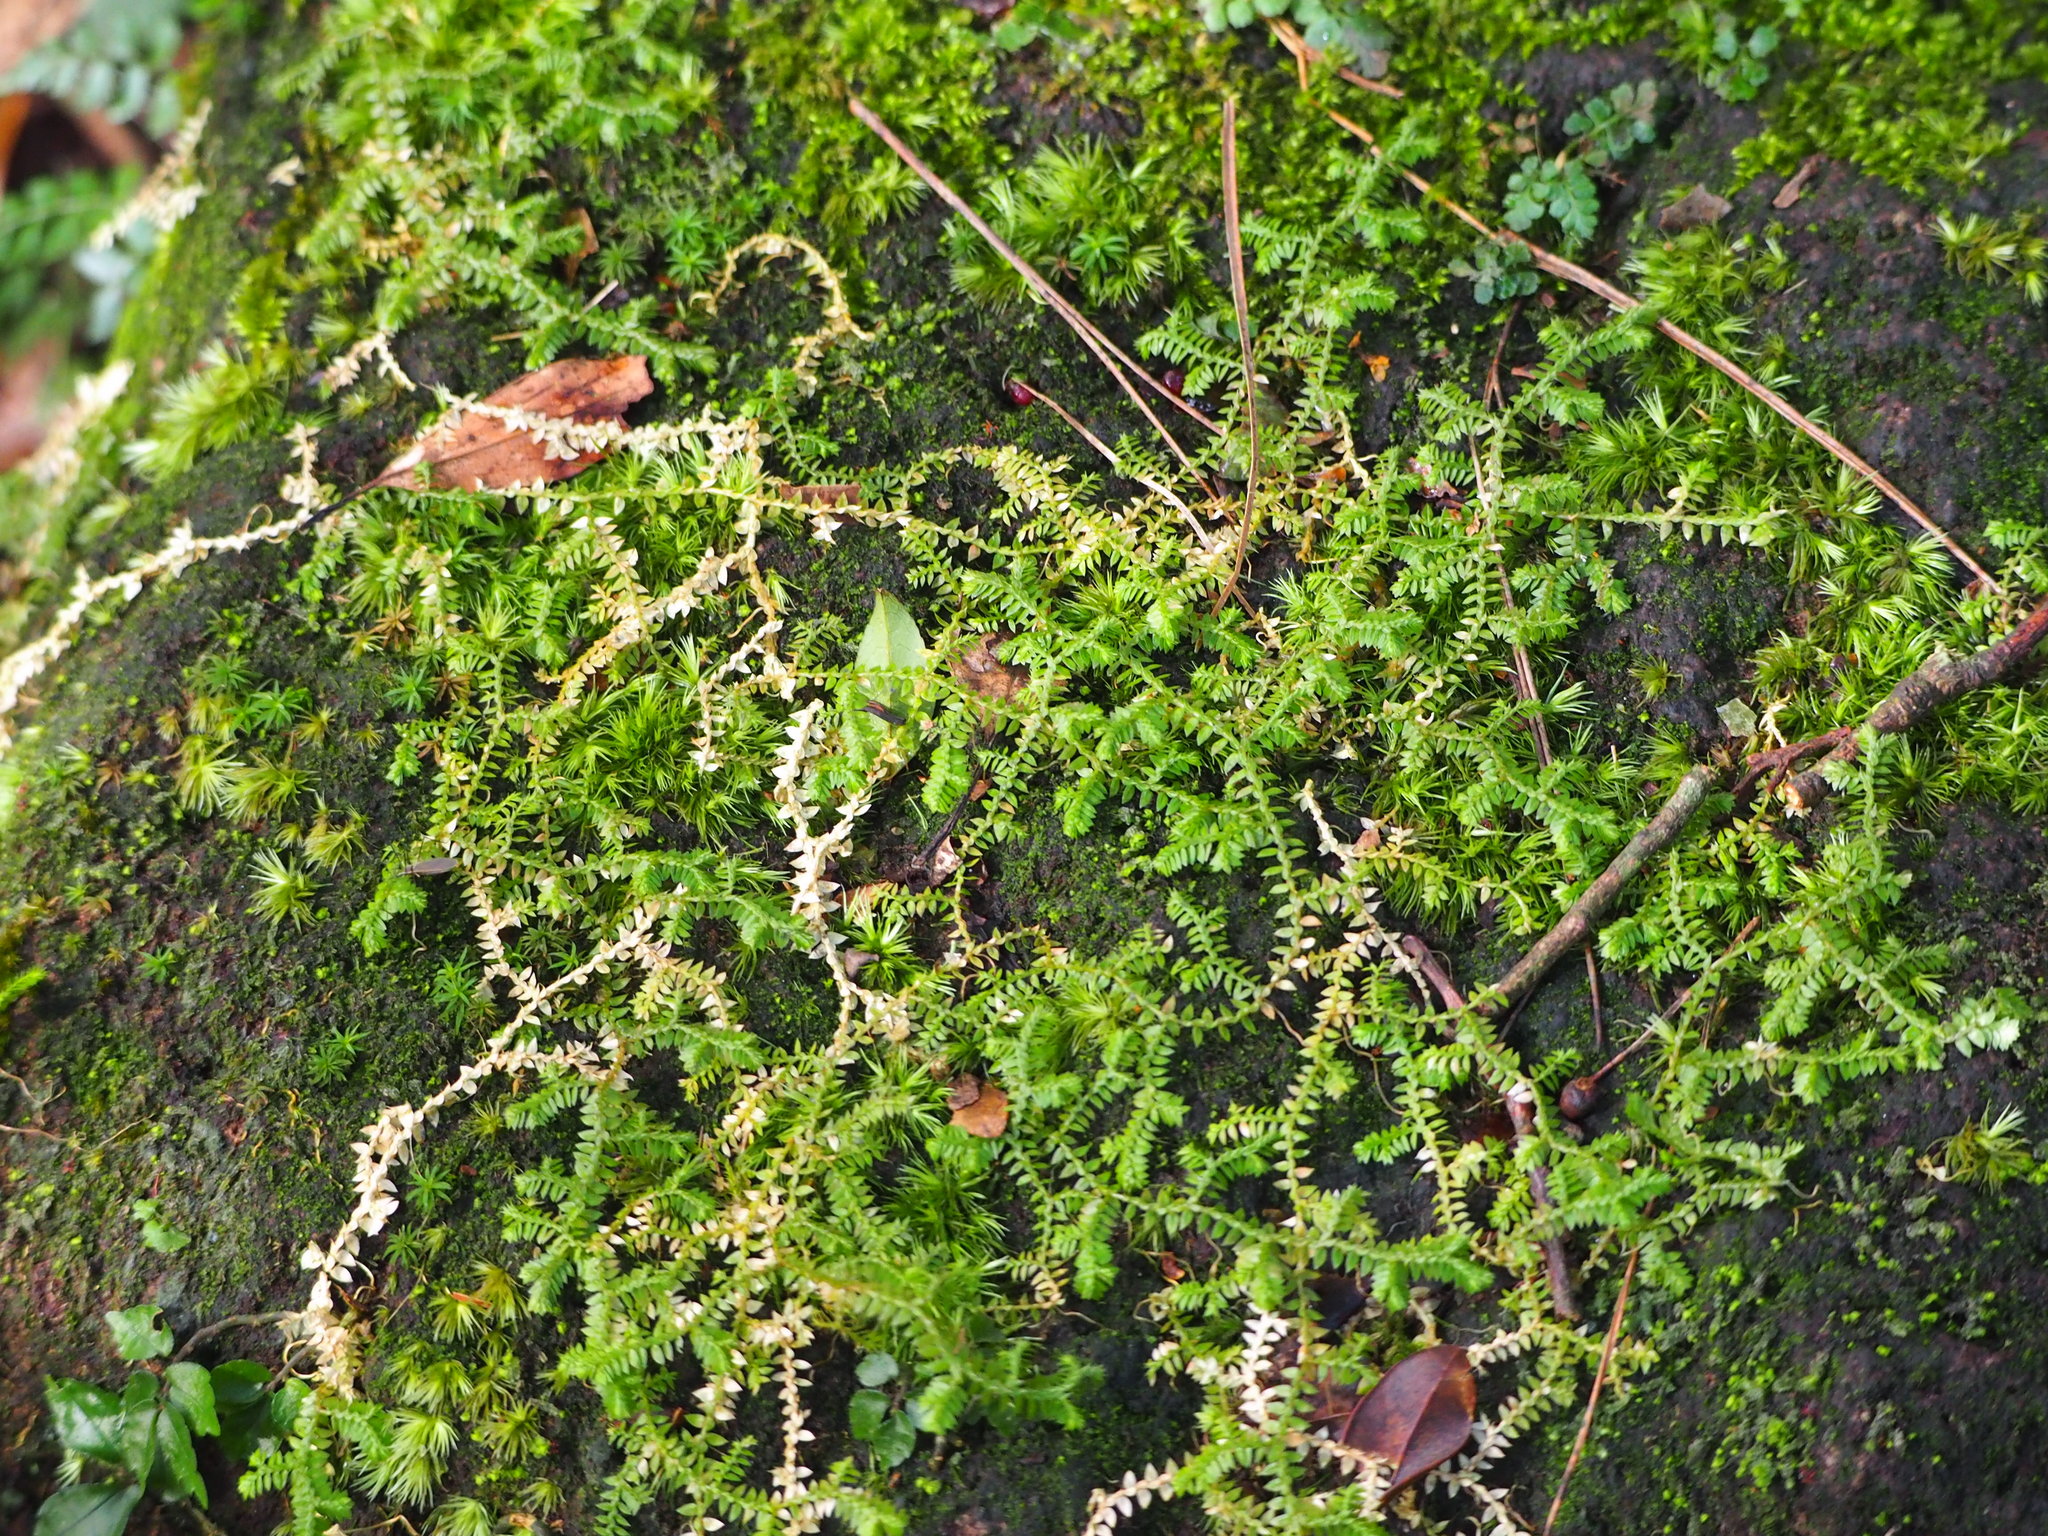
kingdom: Plantae
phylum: Tracheophyta
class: Lycopodiopsida
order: Selaginellales
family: Selaginellaceae
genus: Selaginella
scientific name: Selaginella remotifolia
